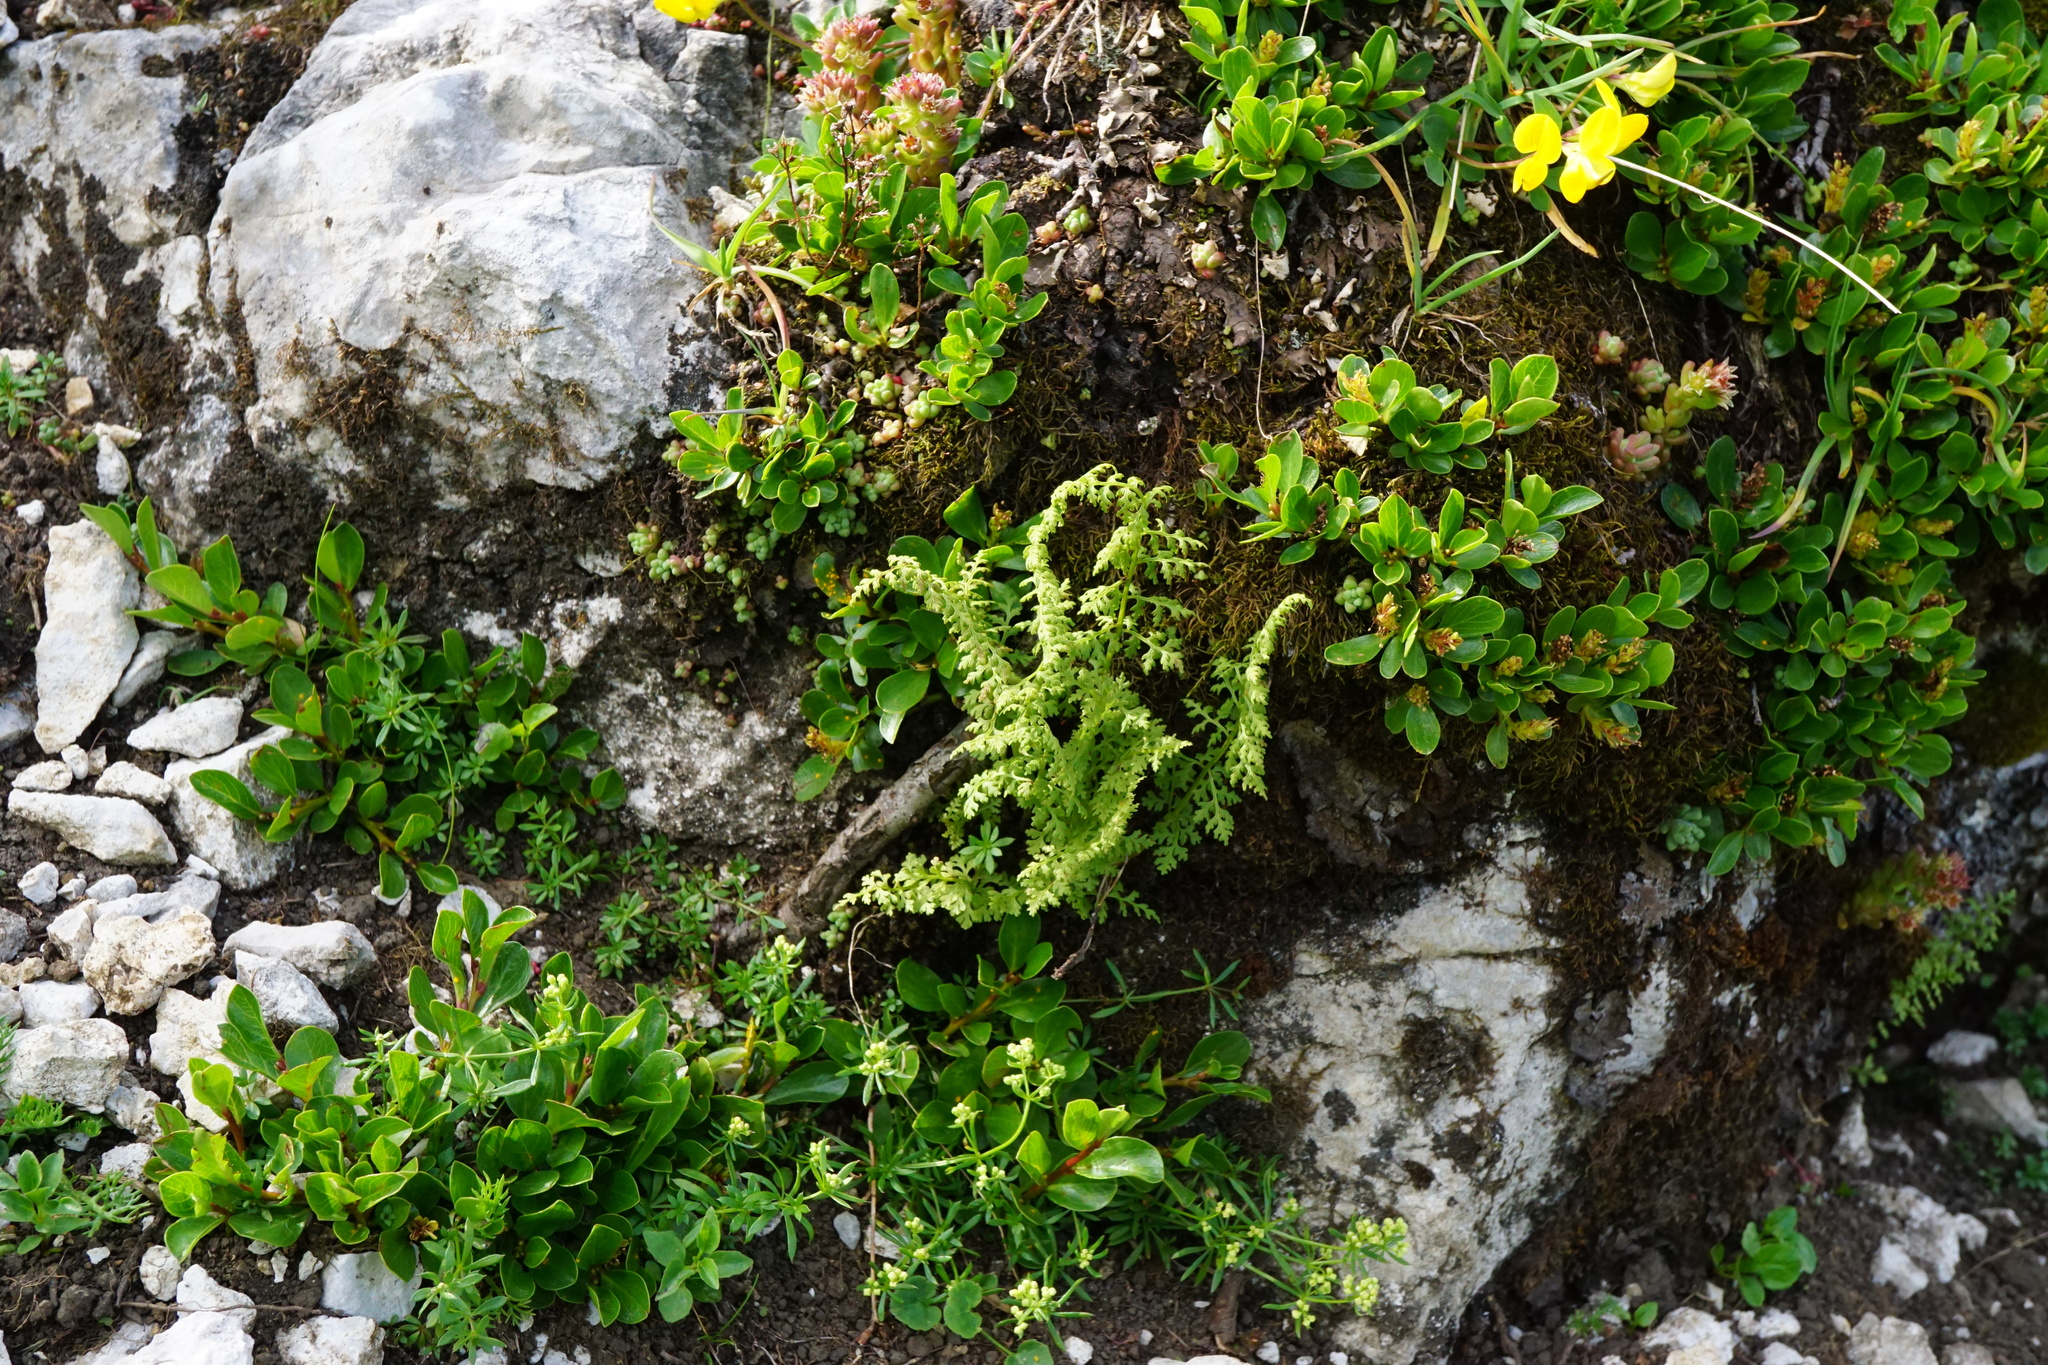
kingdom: Plantae
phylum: Tracheophyta
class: Polypodiopsida
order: Polypodiales
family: Cystopteridaceae
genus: Cystopteris
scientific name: Cystopteris alpina
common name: Alpine bladder-fern
